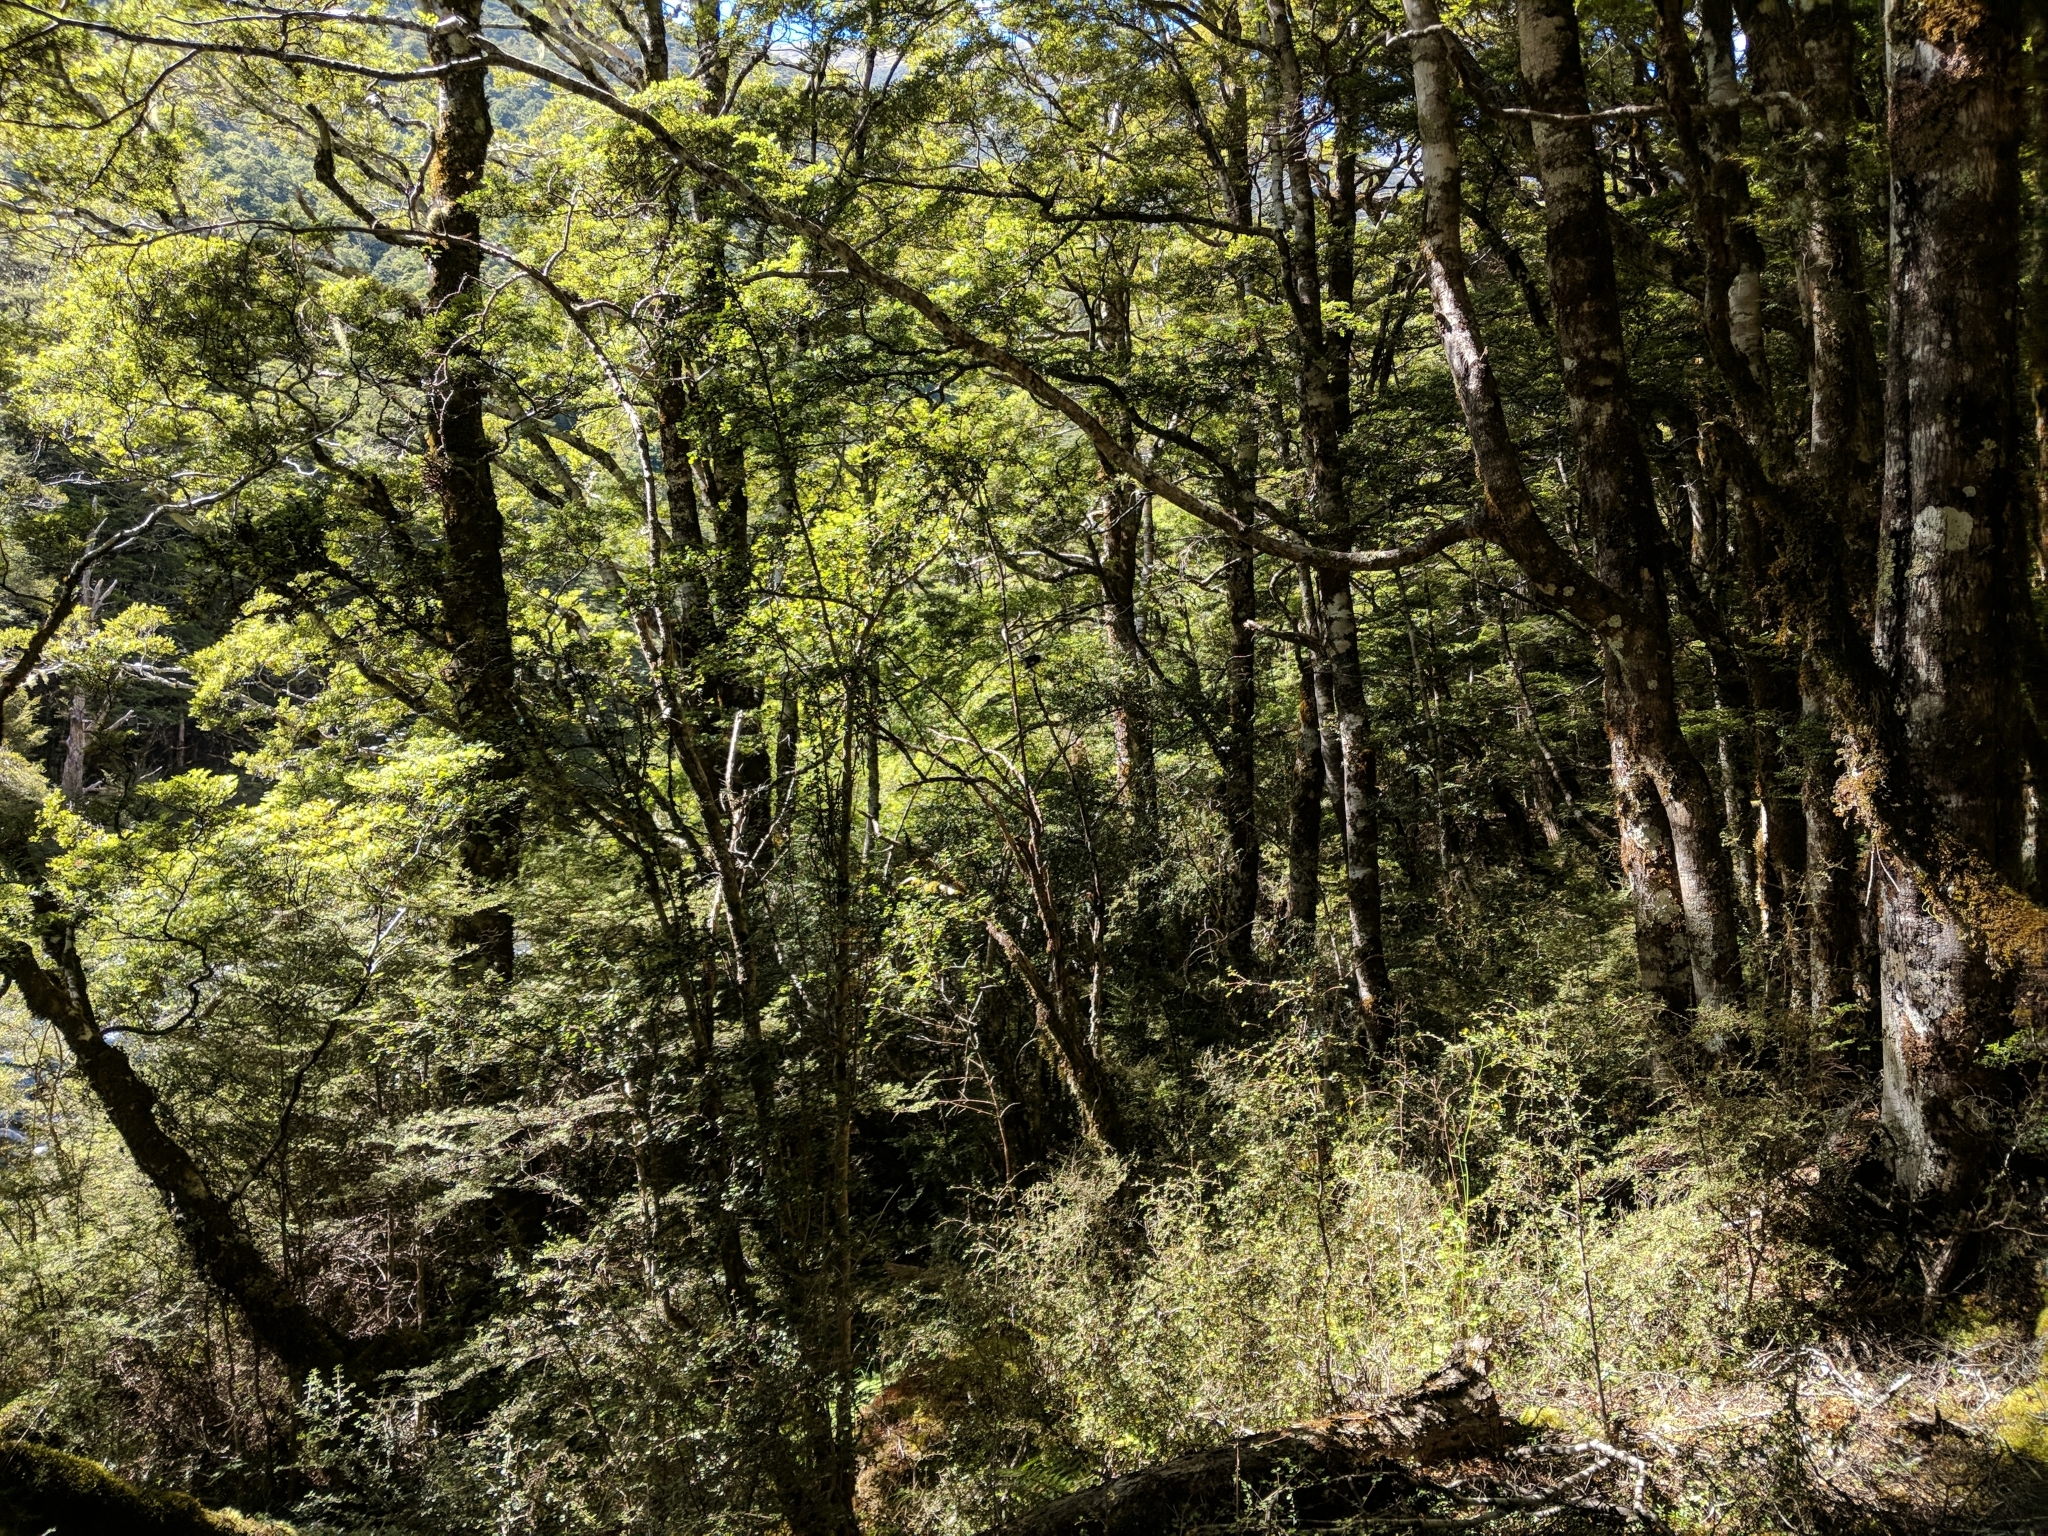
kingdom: Animalia
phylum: Chordata
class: Aves
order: Passeriformes
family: Petroicidae
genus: Petroica
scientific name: Petroica macrocephala
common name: Tomtit
